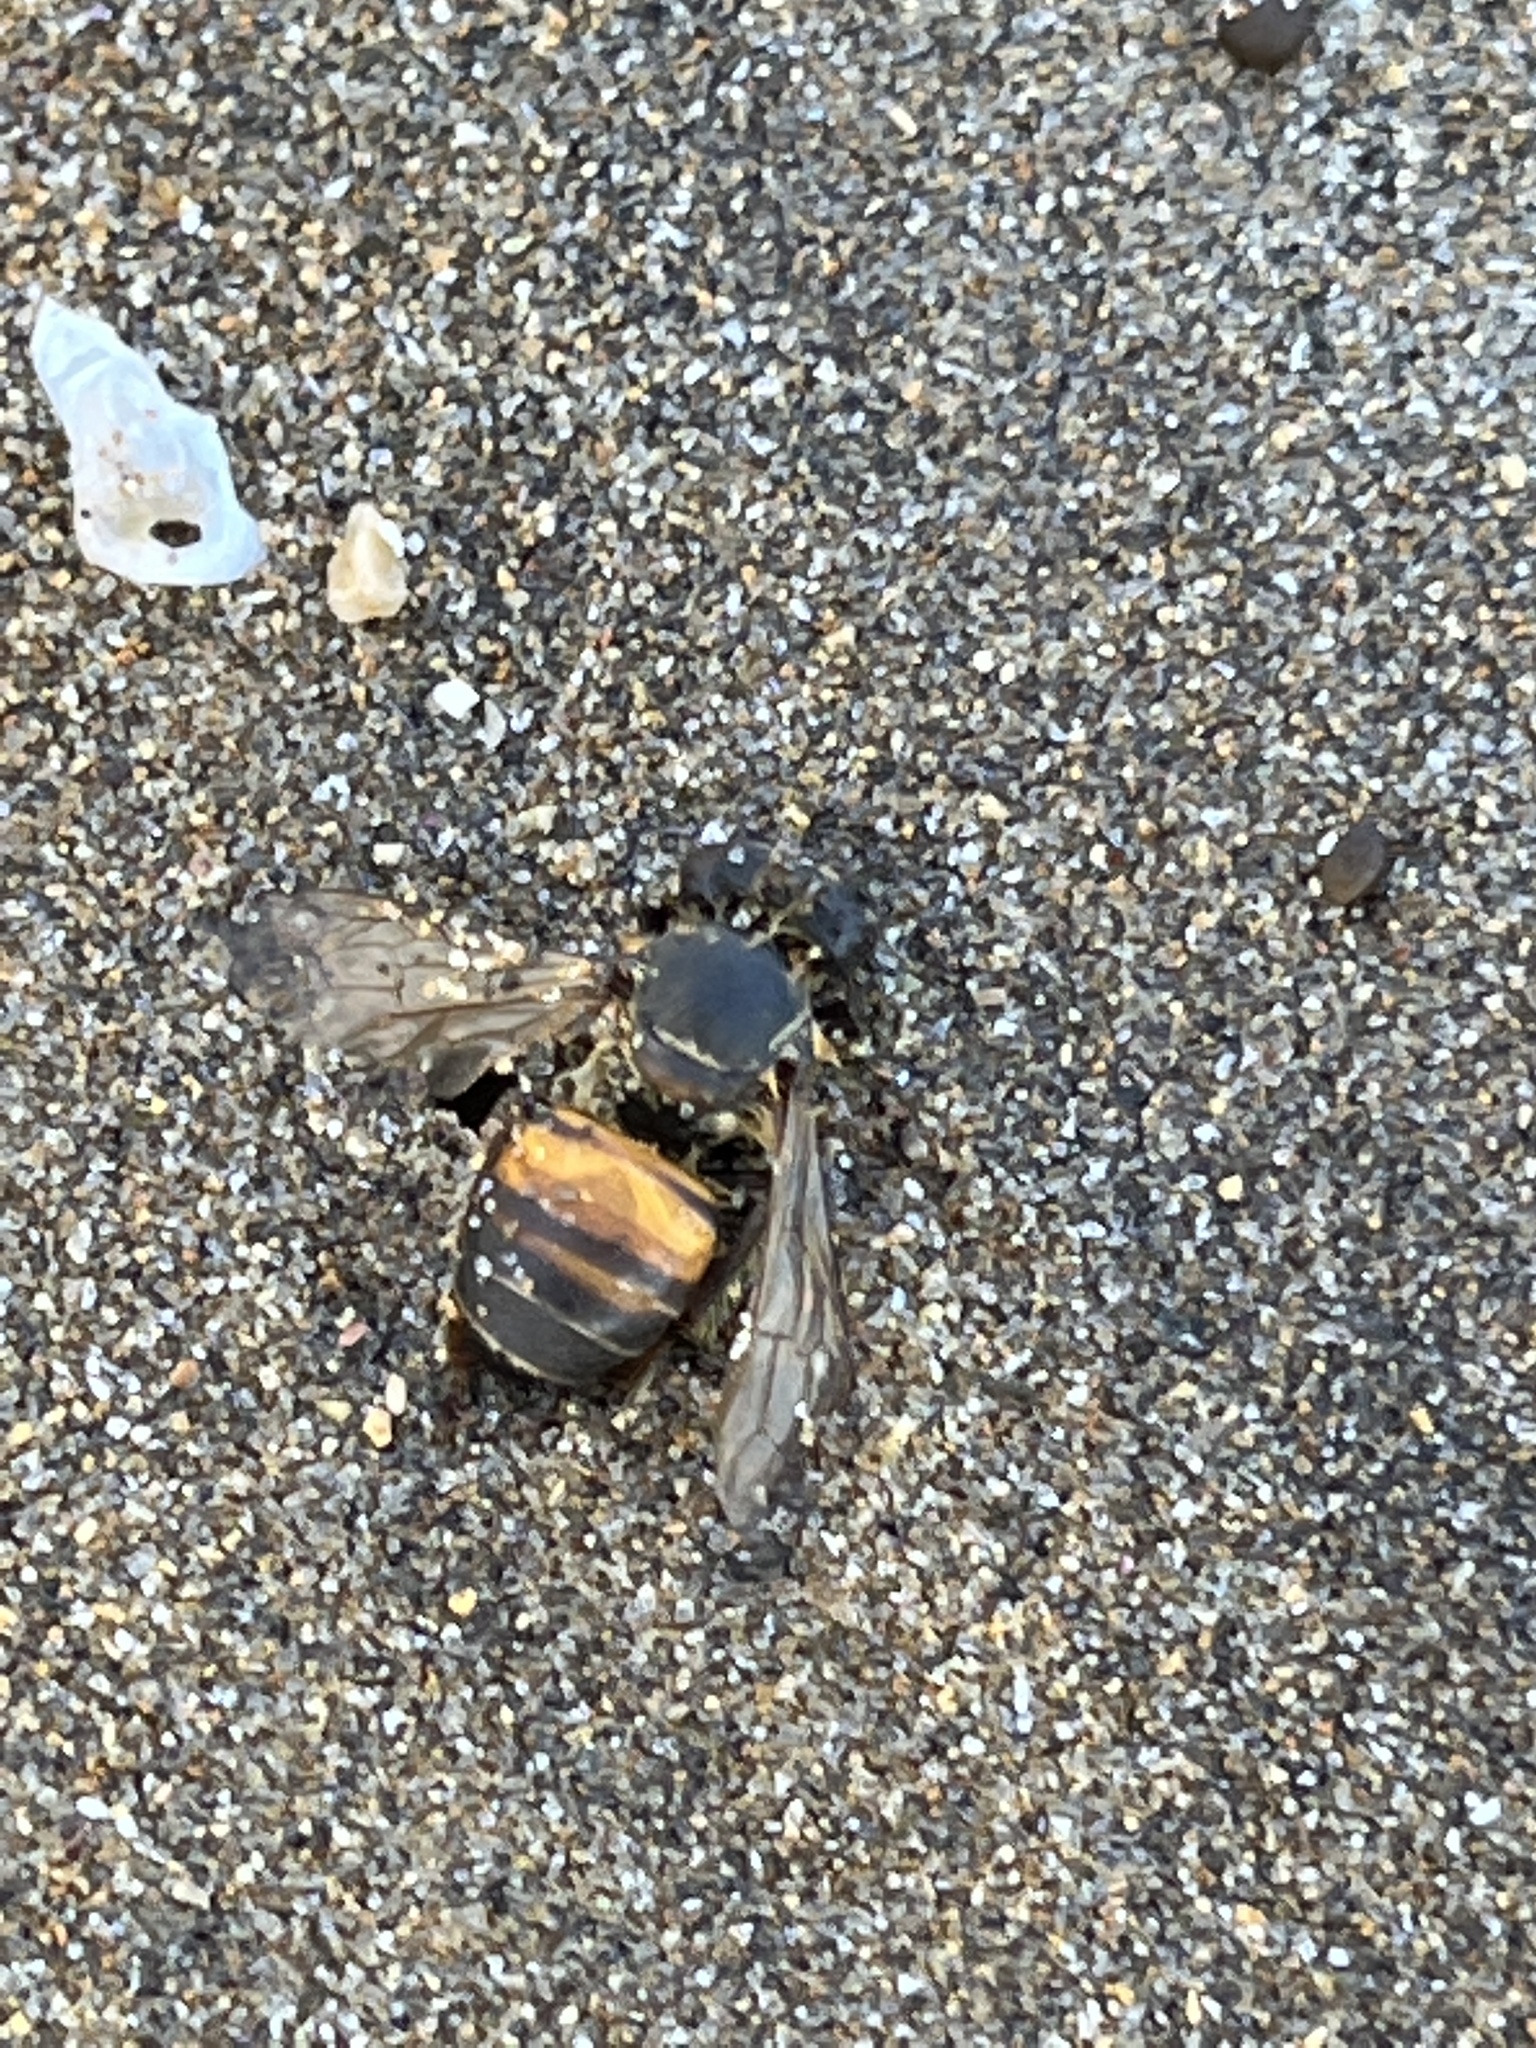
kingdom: Animalia
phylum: Arthropoda
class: Insecta
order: Hymenoptera
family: Apidae
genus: Apis
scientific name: Apis mellifera
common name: Honey bee
